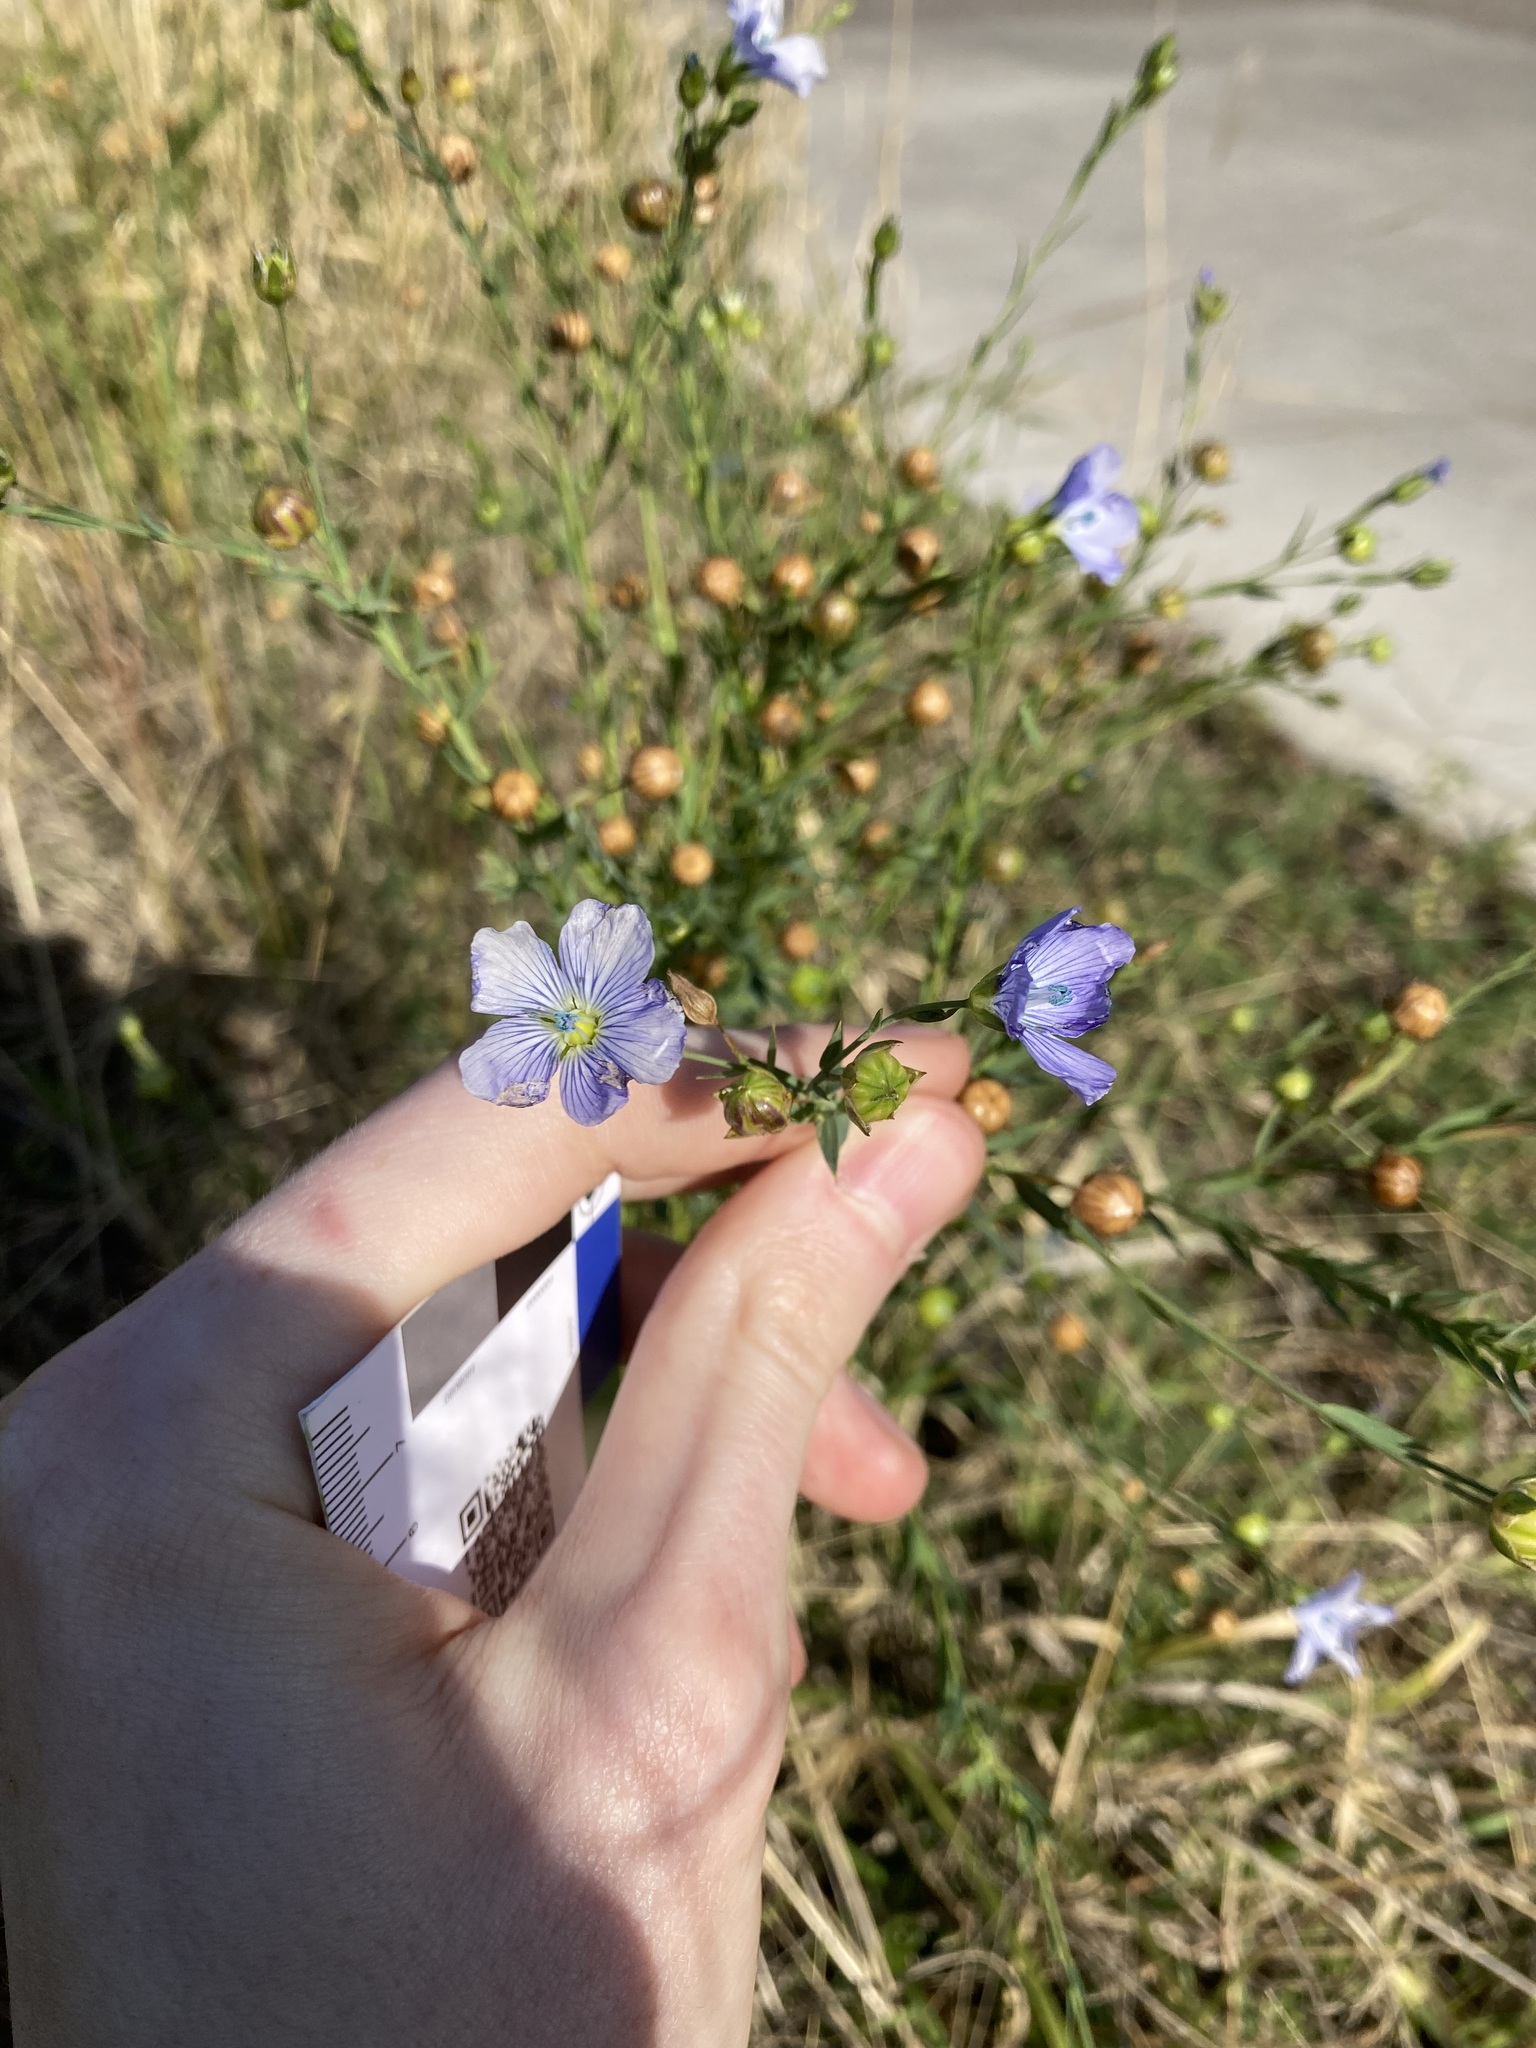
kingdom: Plantae
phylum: Tracheophyta
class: Magnoliopsida
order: Malpighiales
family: Linaceae
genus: Linum
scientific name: Linum marginale
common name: Wild flax
